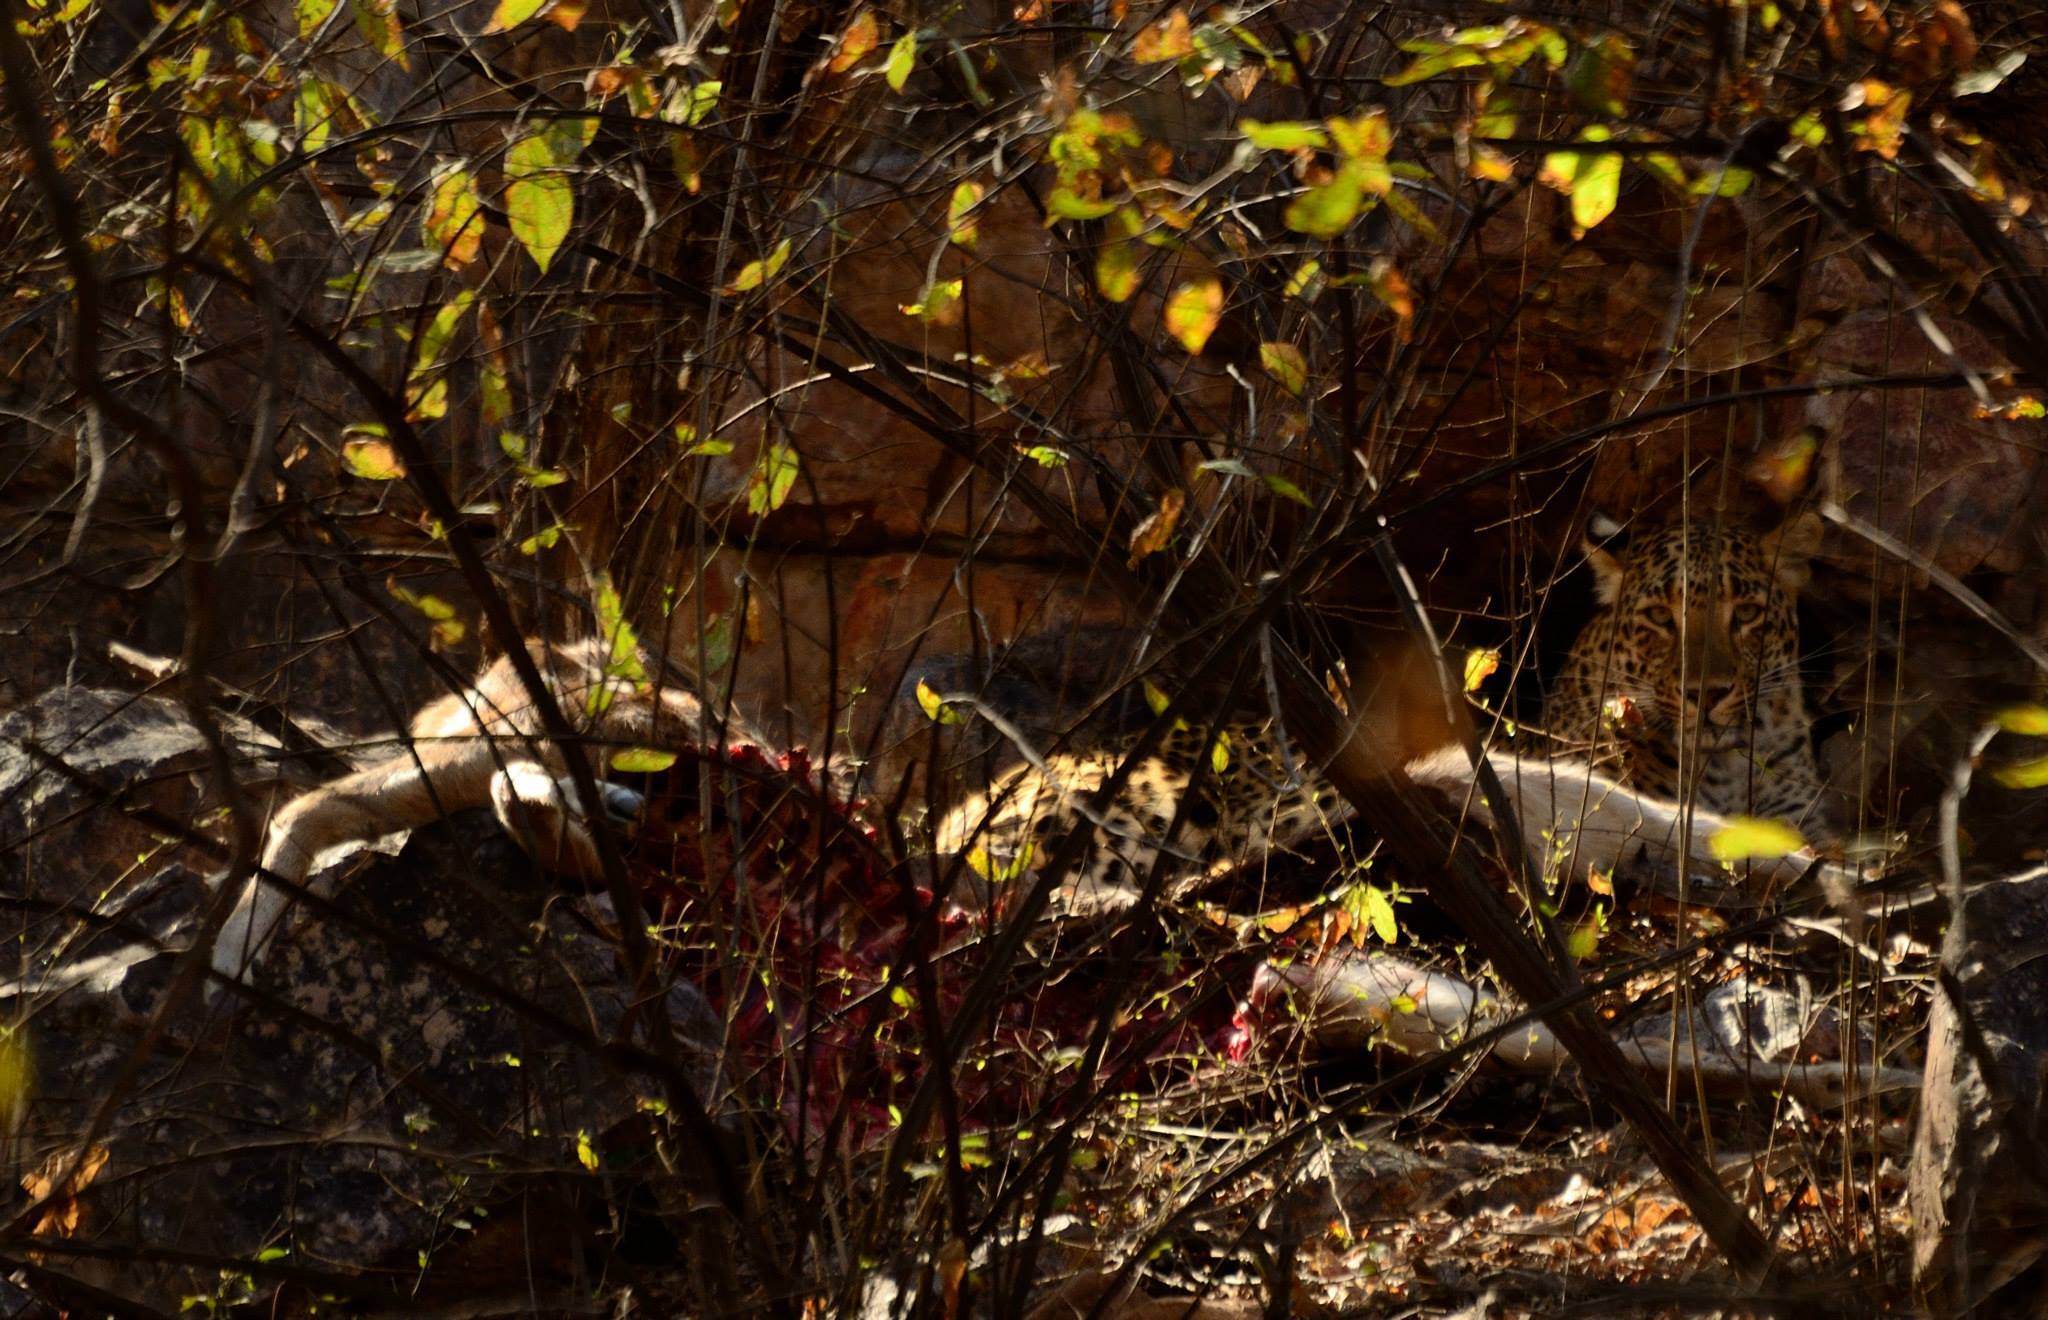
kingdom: Animalia
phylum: Chordata
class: Mammalia
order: Carnivora
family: Felidae
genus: Panthera
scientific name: Panthera pardus
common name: Leopard
